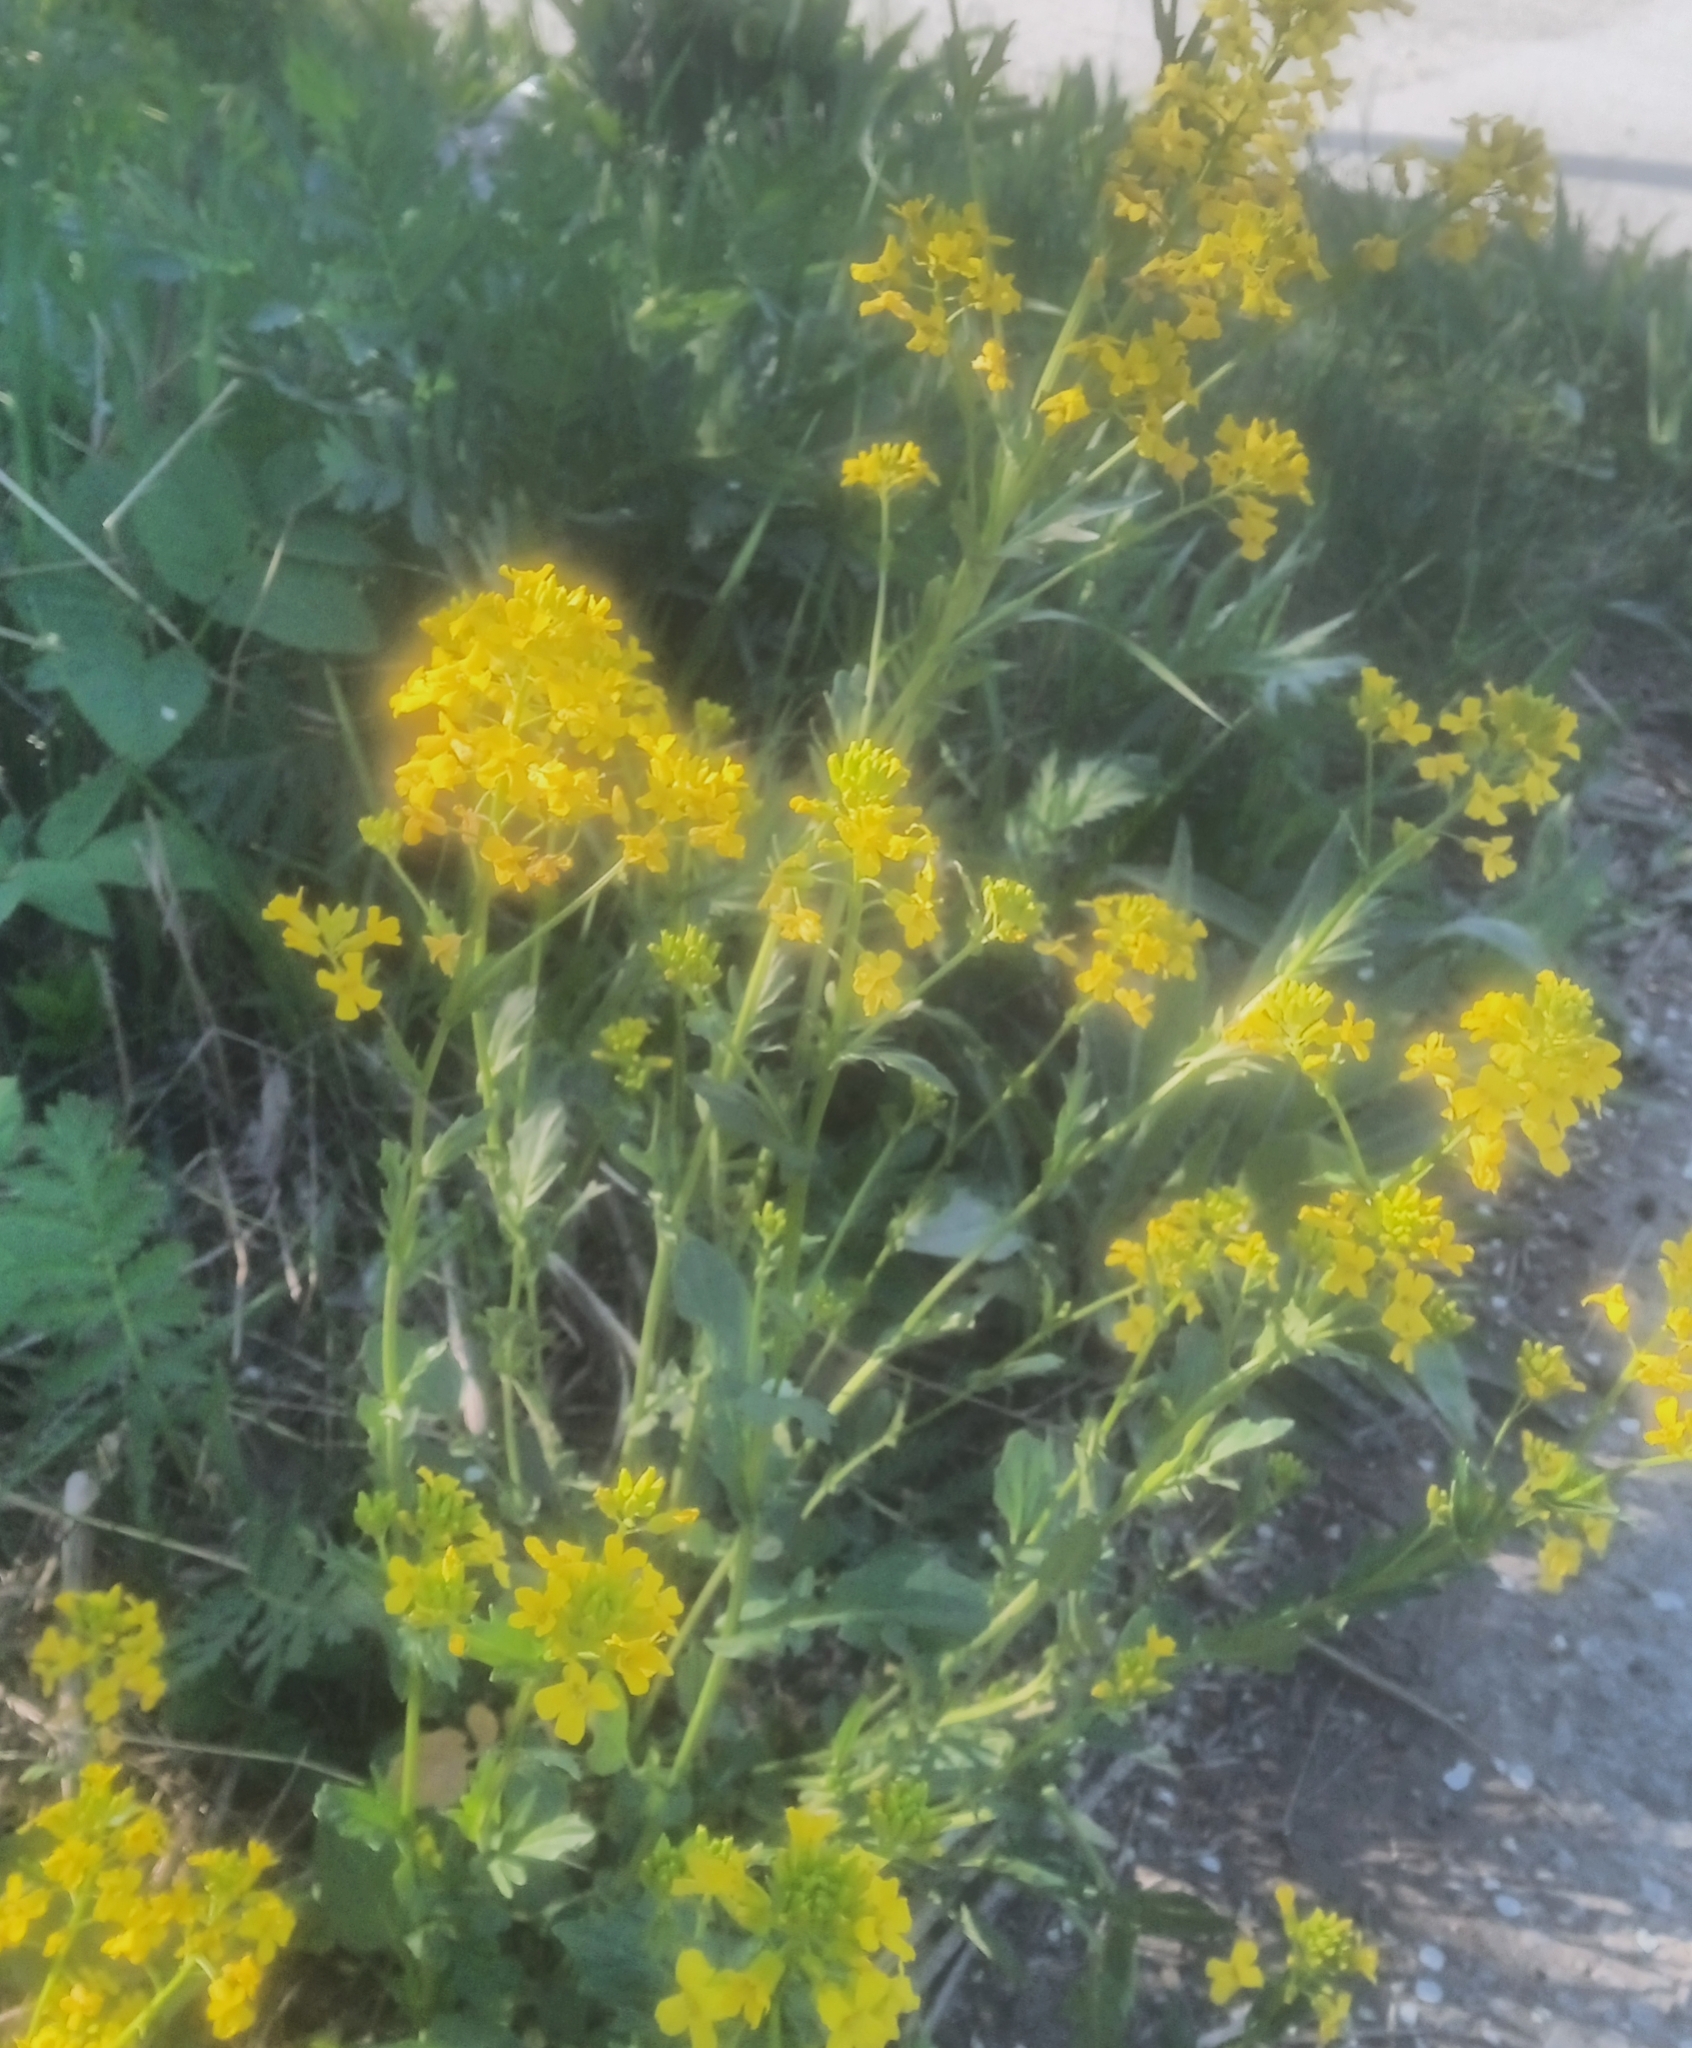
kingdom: Plantae
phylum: Tracheophyta
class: Magnoliopsida
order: Brassicales
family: Brassicaceae
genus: Barbarea
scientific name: Barbarea vulgaris
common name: Cressy-greens
